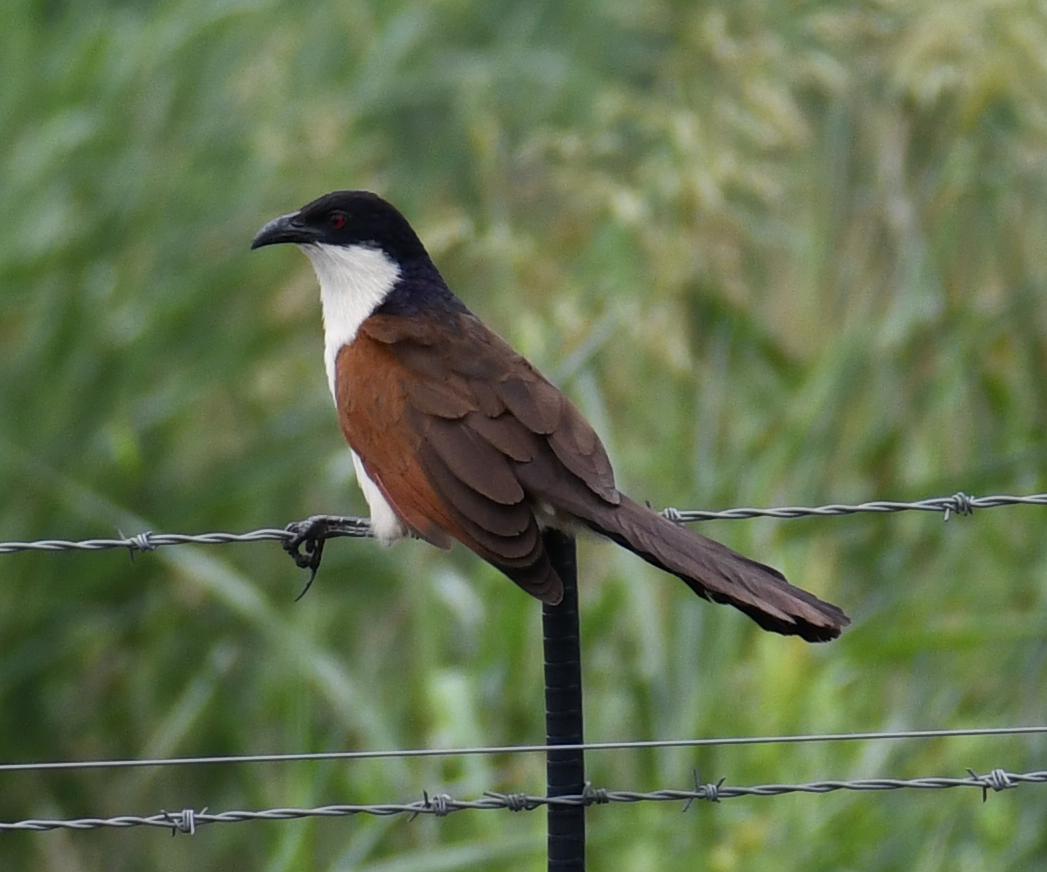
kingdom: Animalia
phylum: Chordata
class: Aves
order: Cuculiformes
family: Cuculidae
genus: Centropus
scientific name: Centropus senegalensis
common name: Senegal coucal
